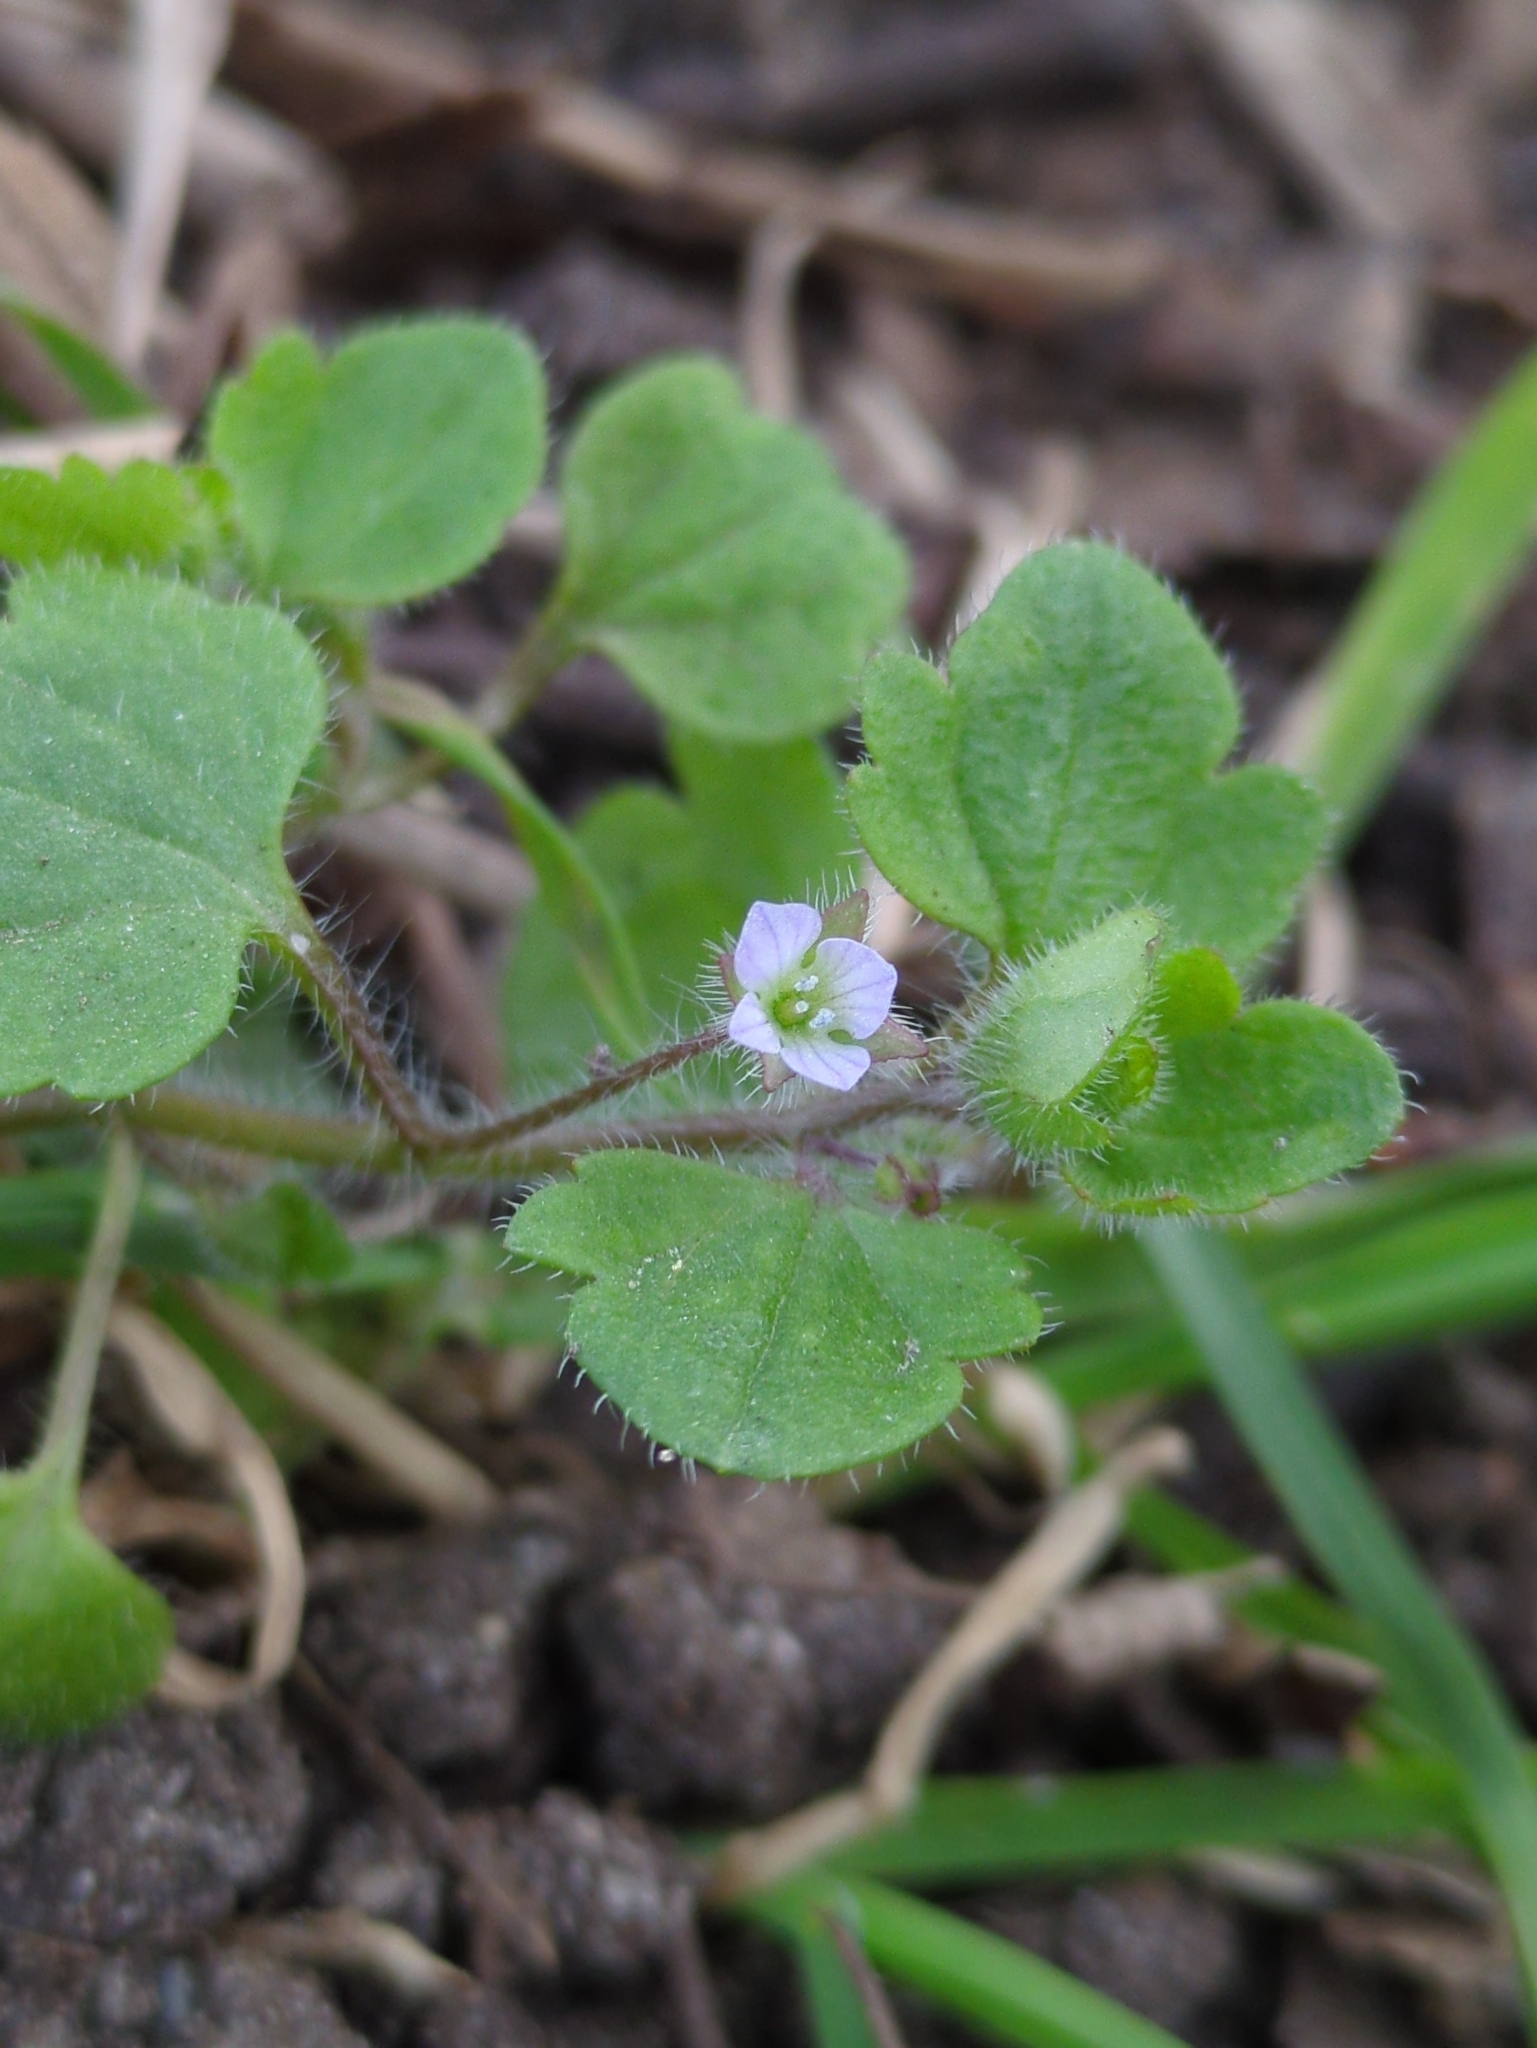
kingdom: Plantae
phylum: Tracheophyta
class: Magnoliopsida
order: Lamiales
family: Plantaginaceae
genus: Veronica
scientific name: Veronica sublobata
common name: False ivy-leaved speedwell
